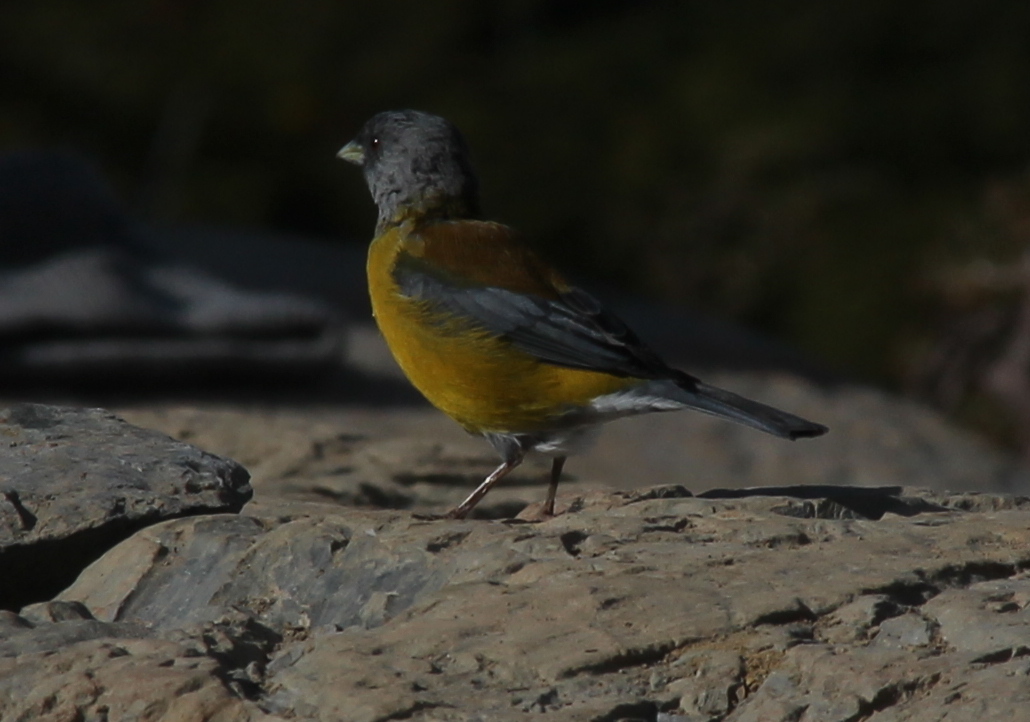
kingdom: Animalia
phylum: Chordata
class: Aves
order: Passeriformes
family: Thraupidae
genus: Phrygilus
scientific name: Phrygilus patagonicus
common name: Patagonian sierra finch
